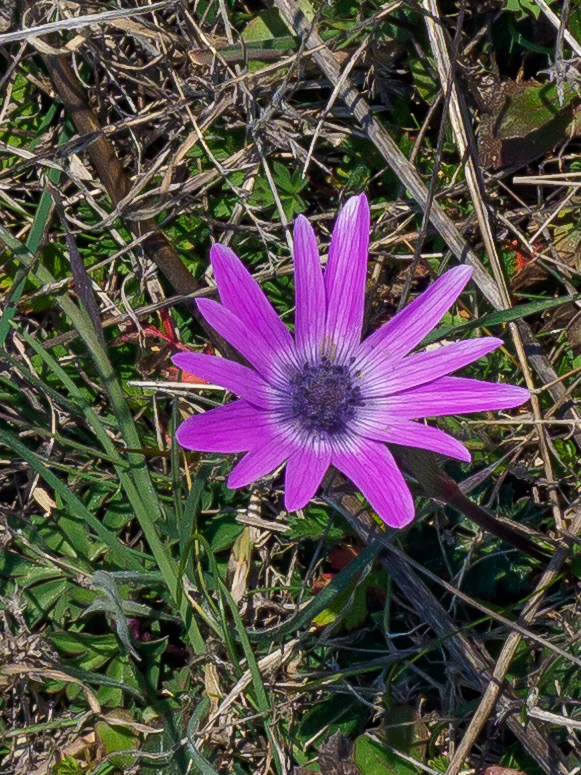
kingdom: Plantae
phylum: Tracheophyta
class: Magnoliopsida
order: Ranunculales
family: Ranunculaceae
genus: Anemone
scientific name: Anemone hortensis
